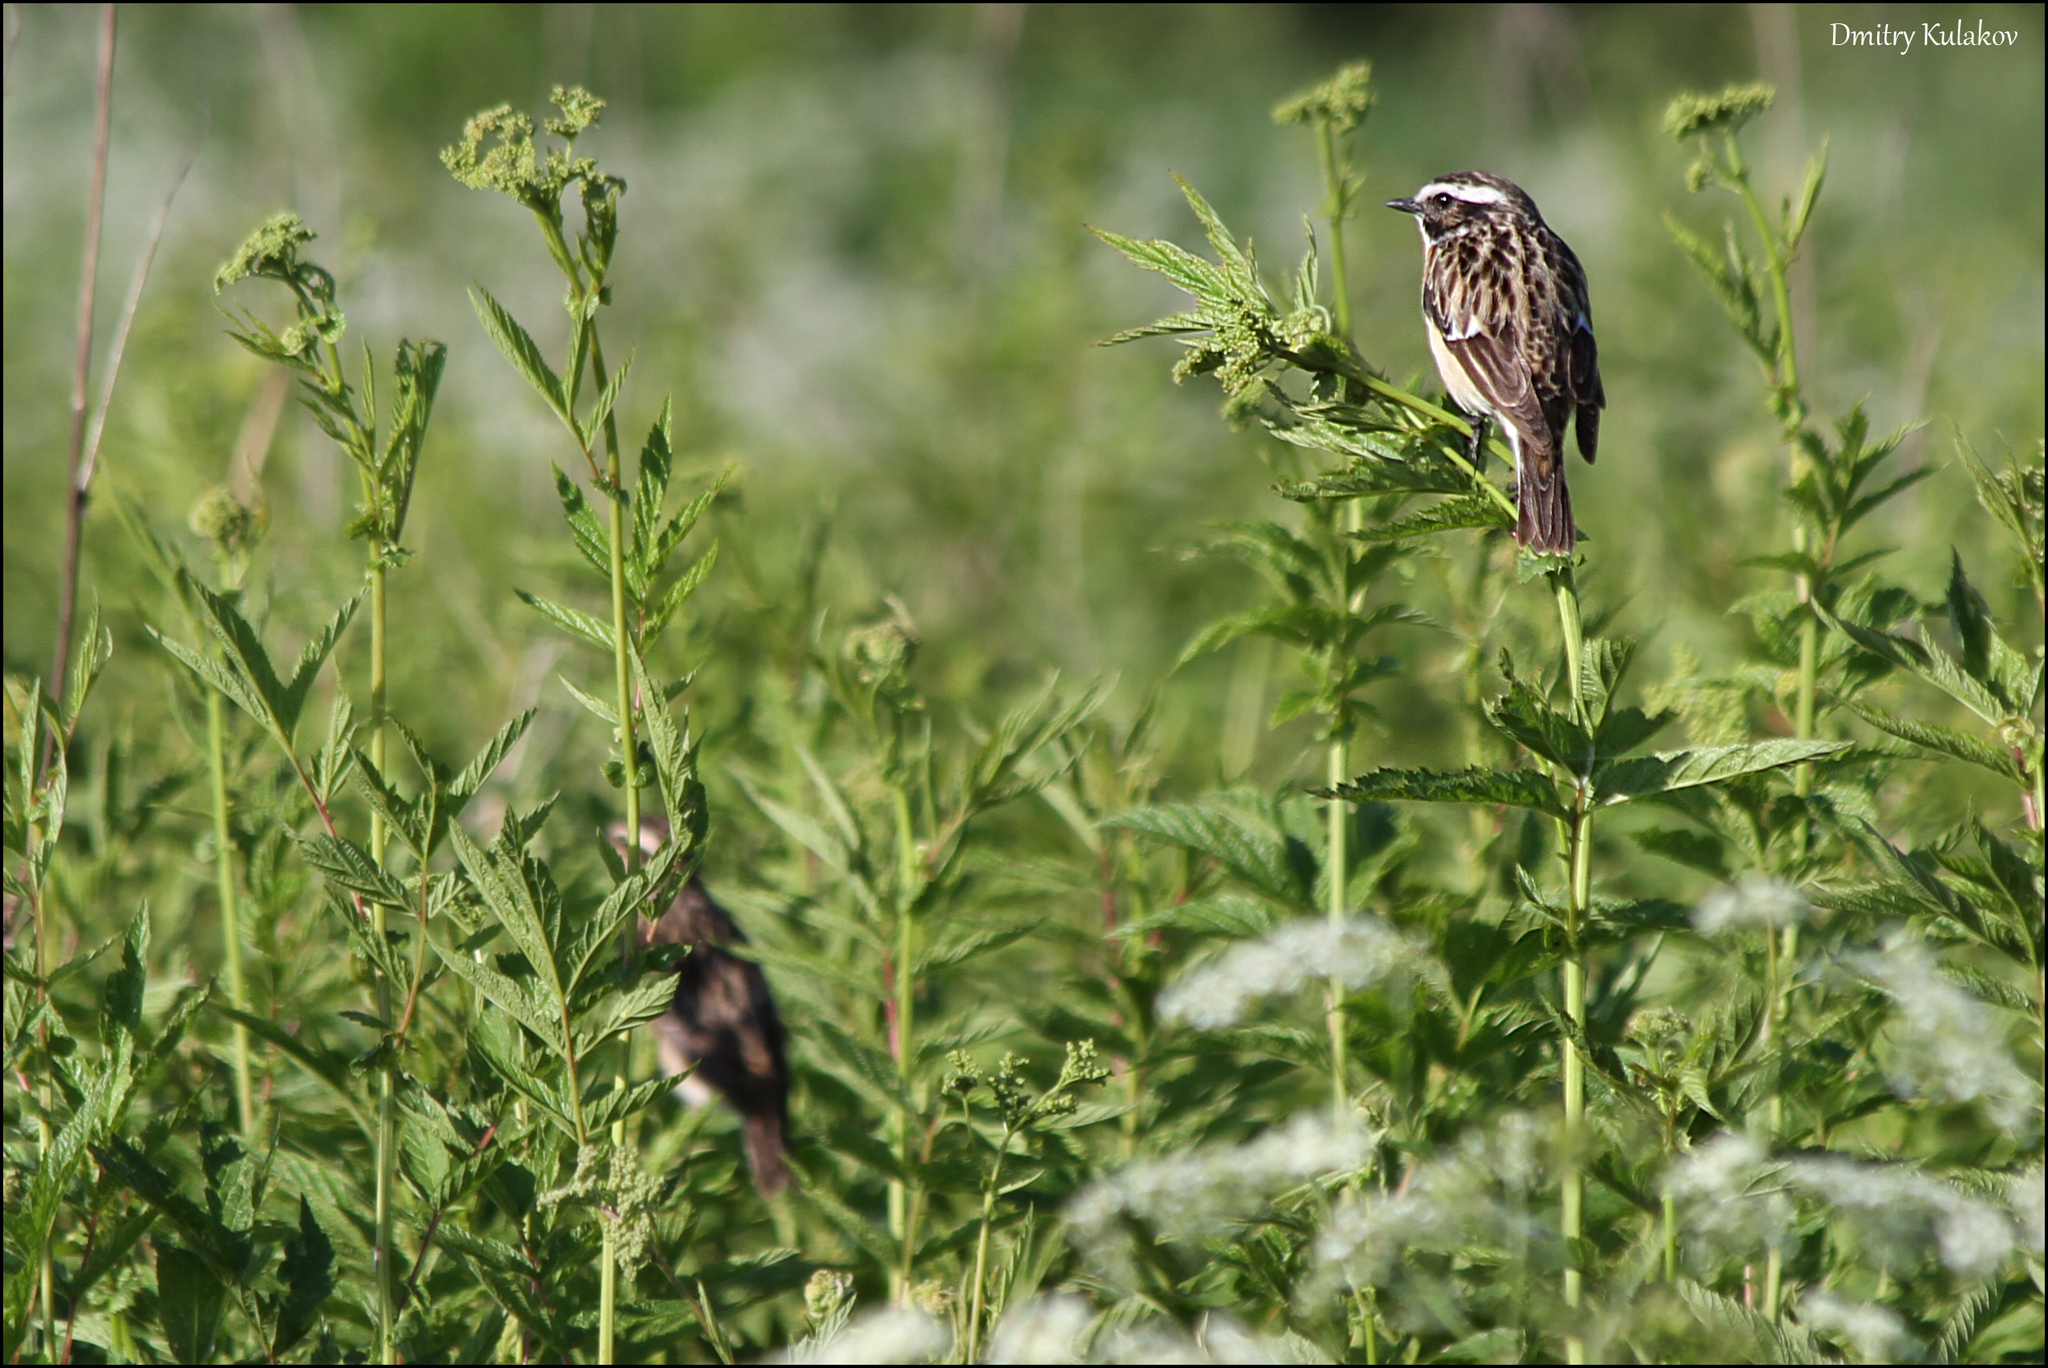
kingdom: Animalia
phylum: Chordata
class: Aves
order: Passeriformes
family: Muscicapidae
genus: Saxicola
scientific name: Saxicola rubetra
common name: Whinchat
